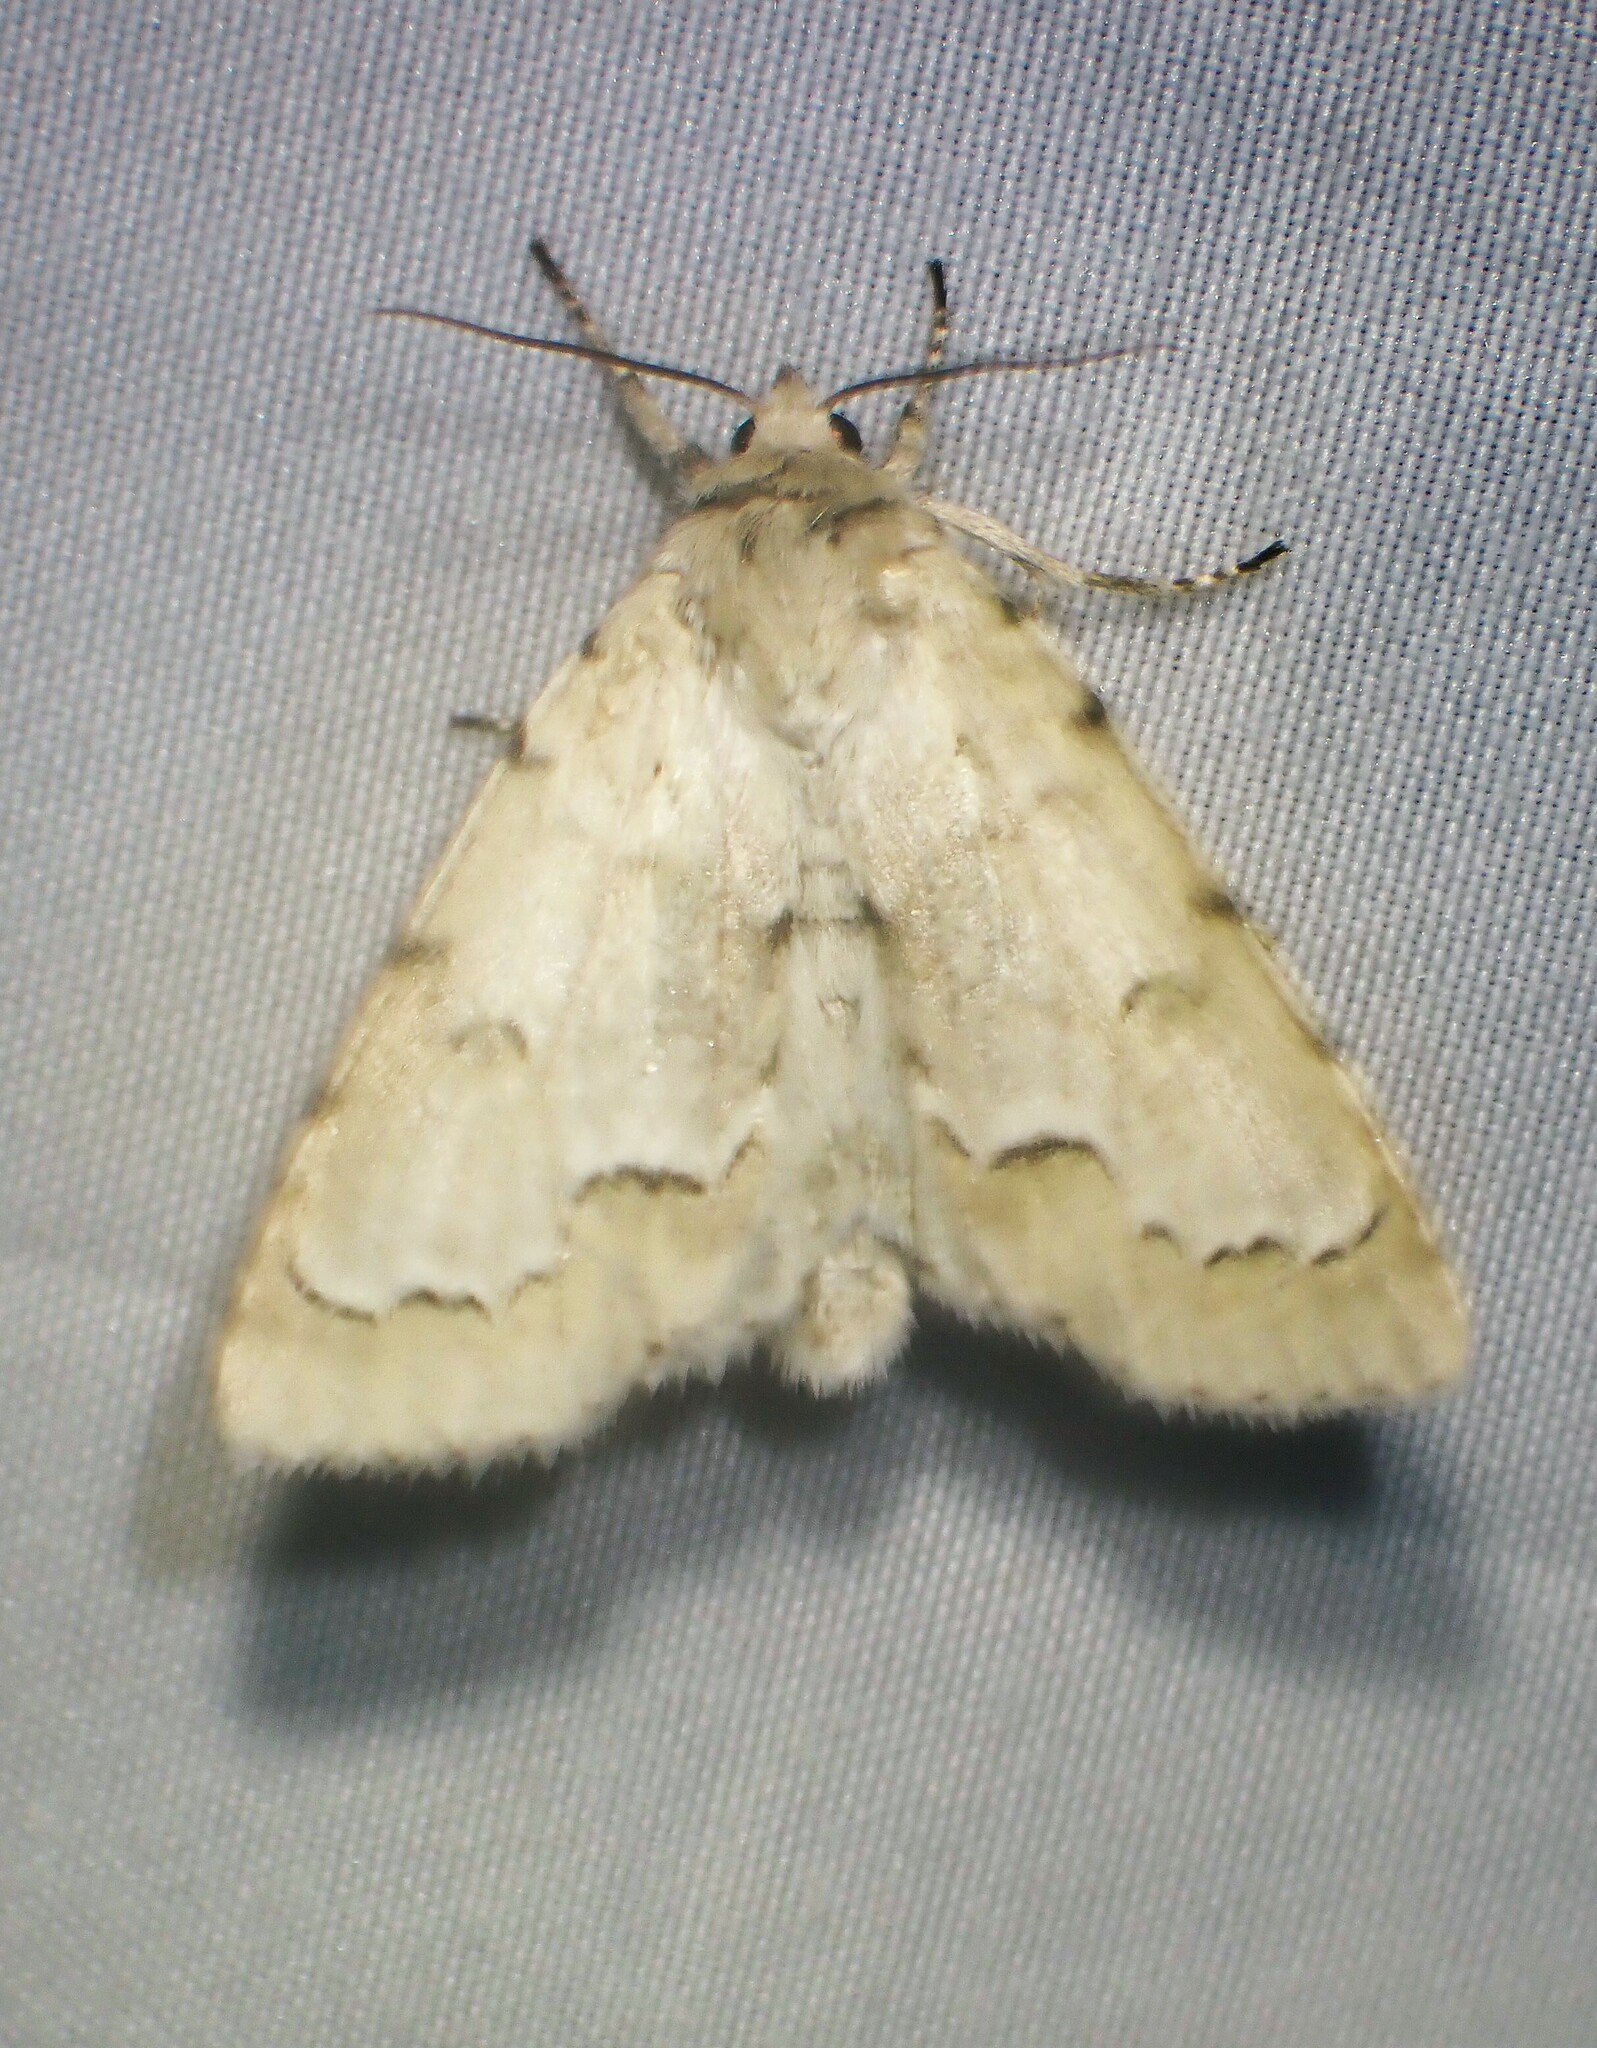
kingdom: Animalia
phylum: Arthropoda
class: Insecta
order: Lepidoptera
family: Noctuidae
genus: Acronicta
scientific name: Acronicta innotata
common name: Unmarked dagger
